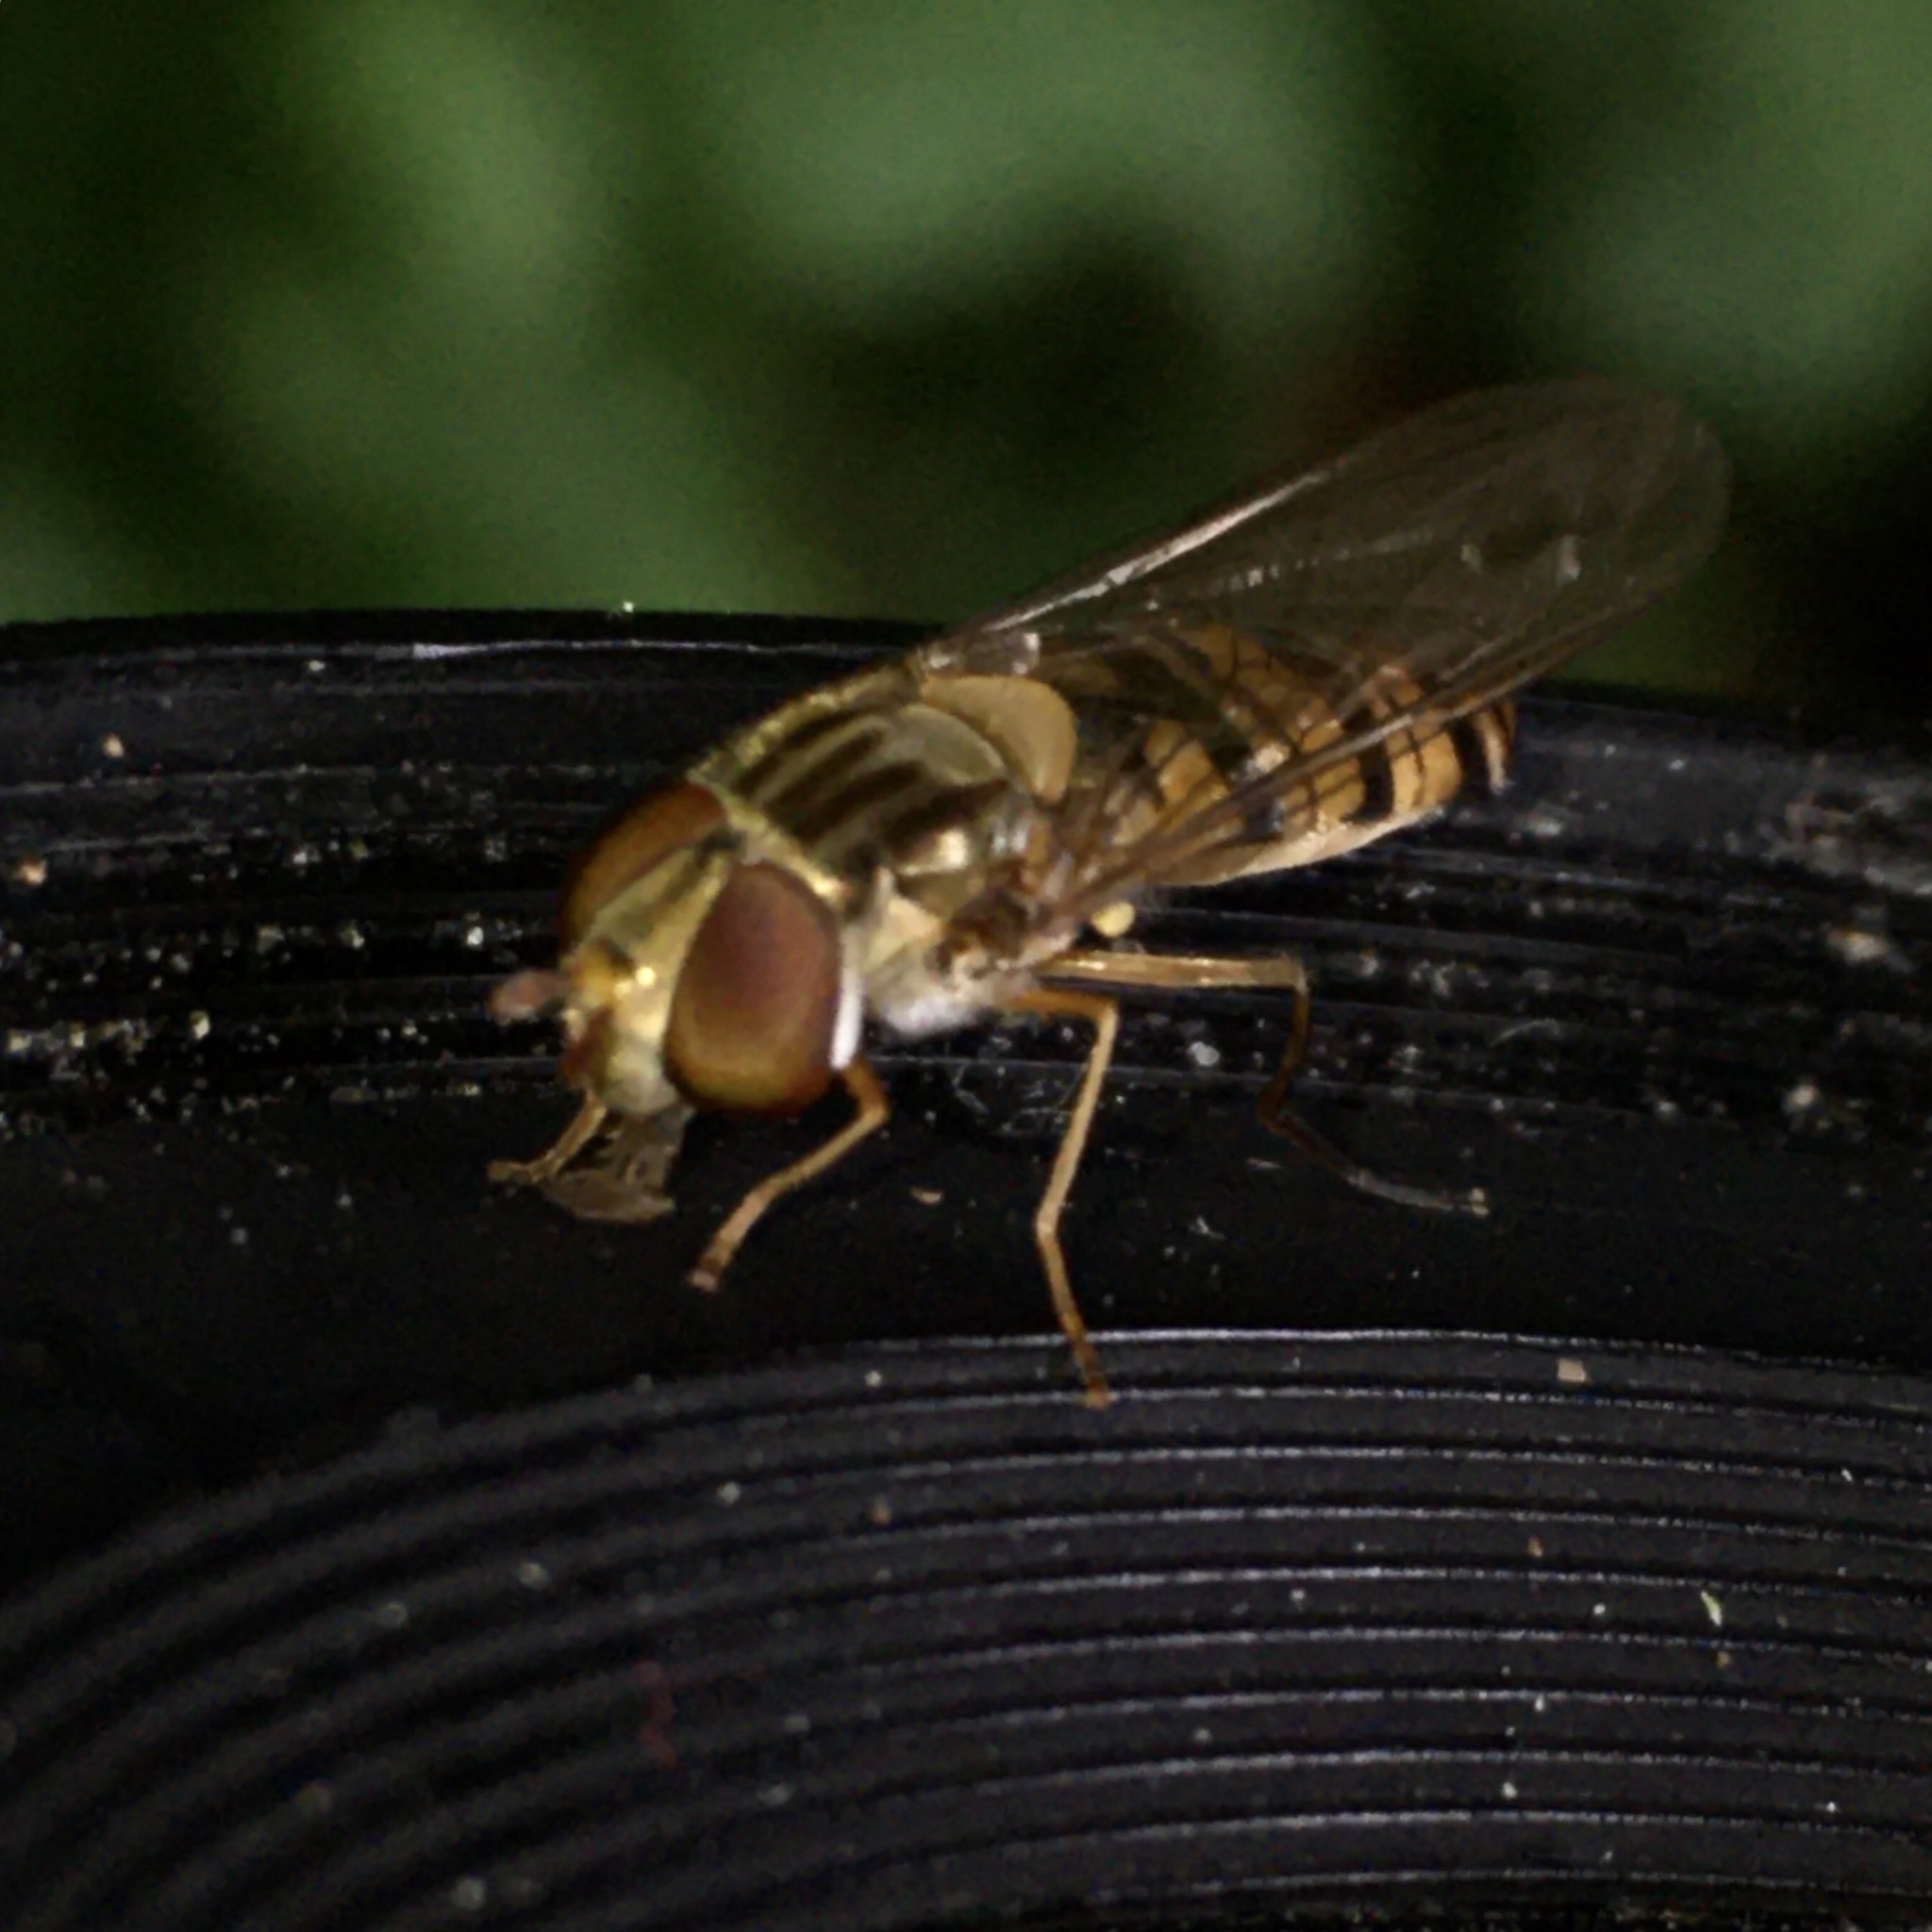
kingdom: Animalia
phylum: Arthropoda
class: Insecta
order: Diptera
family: Syrphidae
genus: Episyrphus
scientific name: Episyrphus balteatus
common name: Marmalade hoverfly
